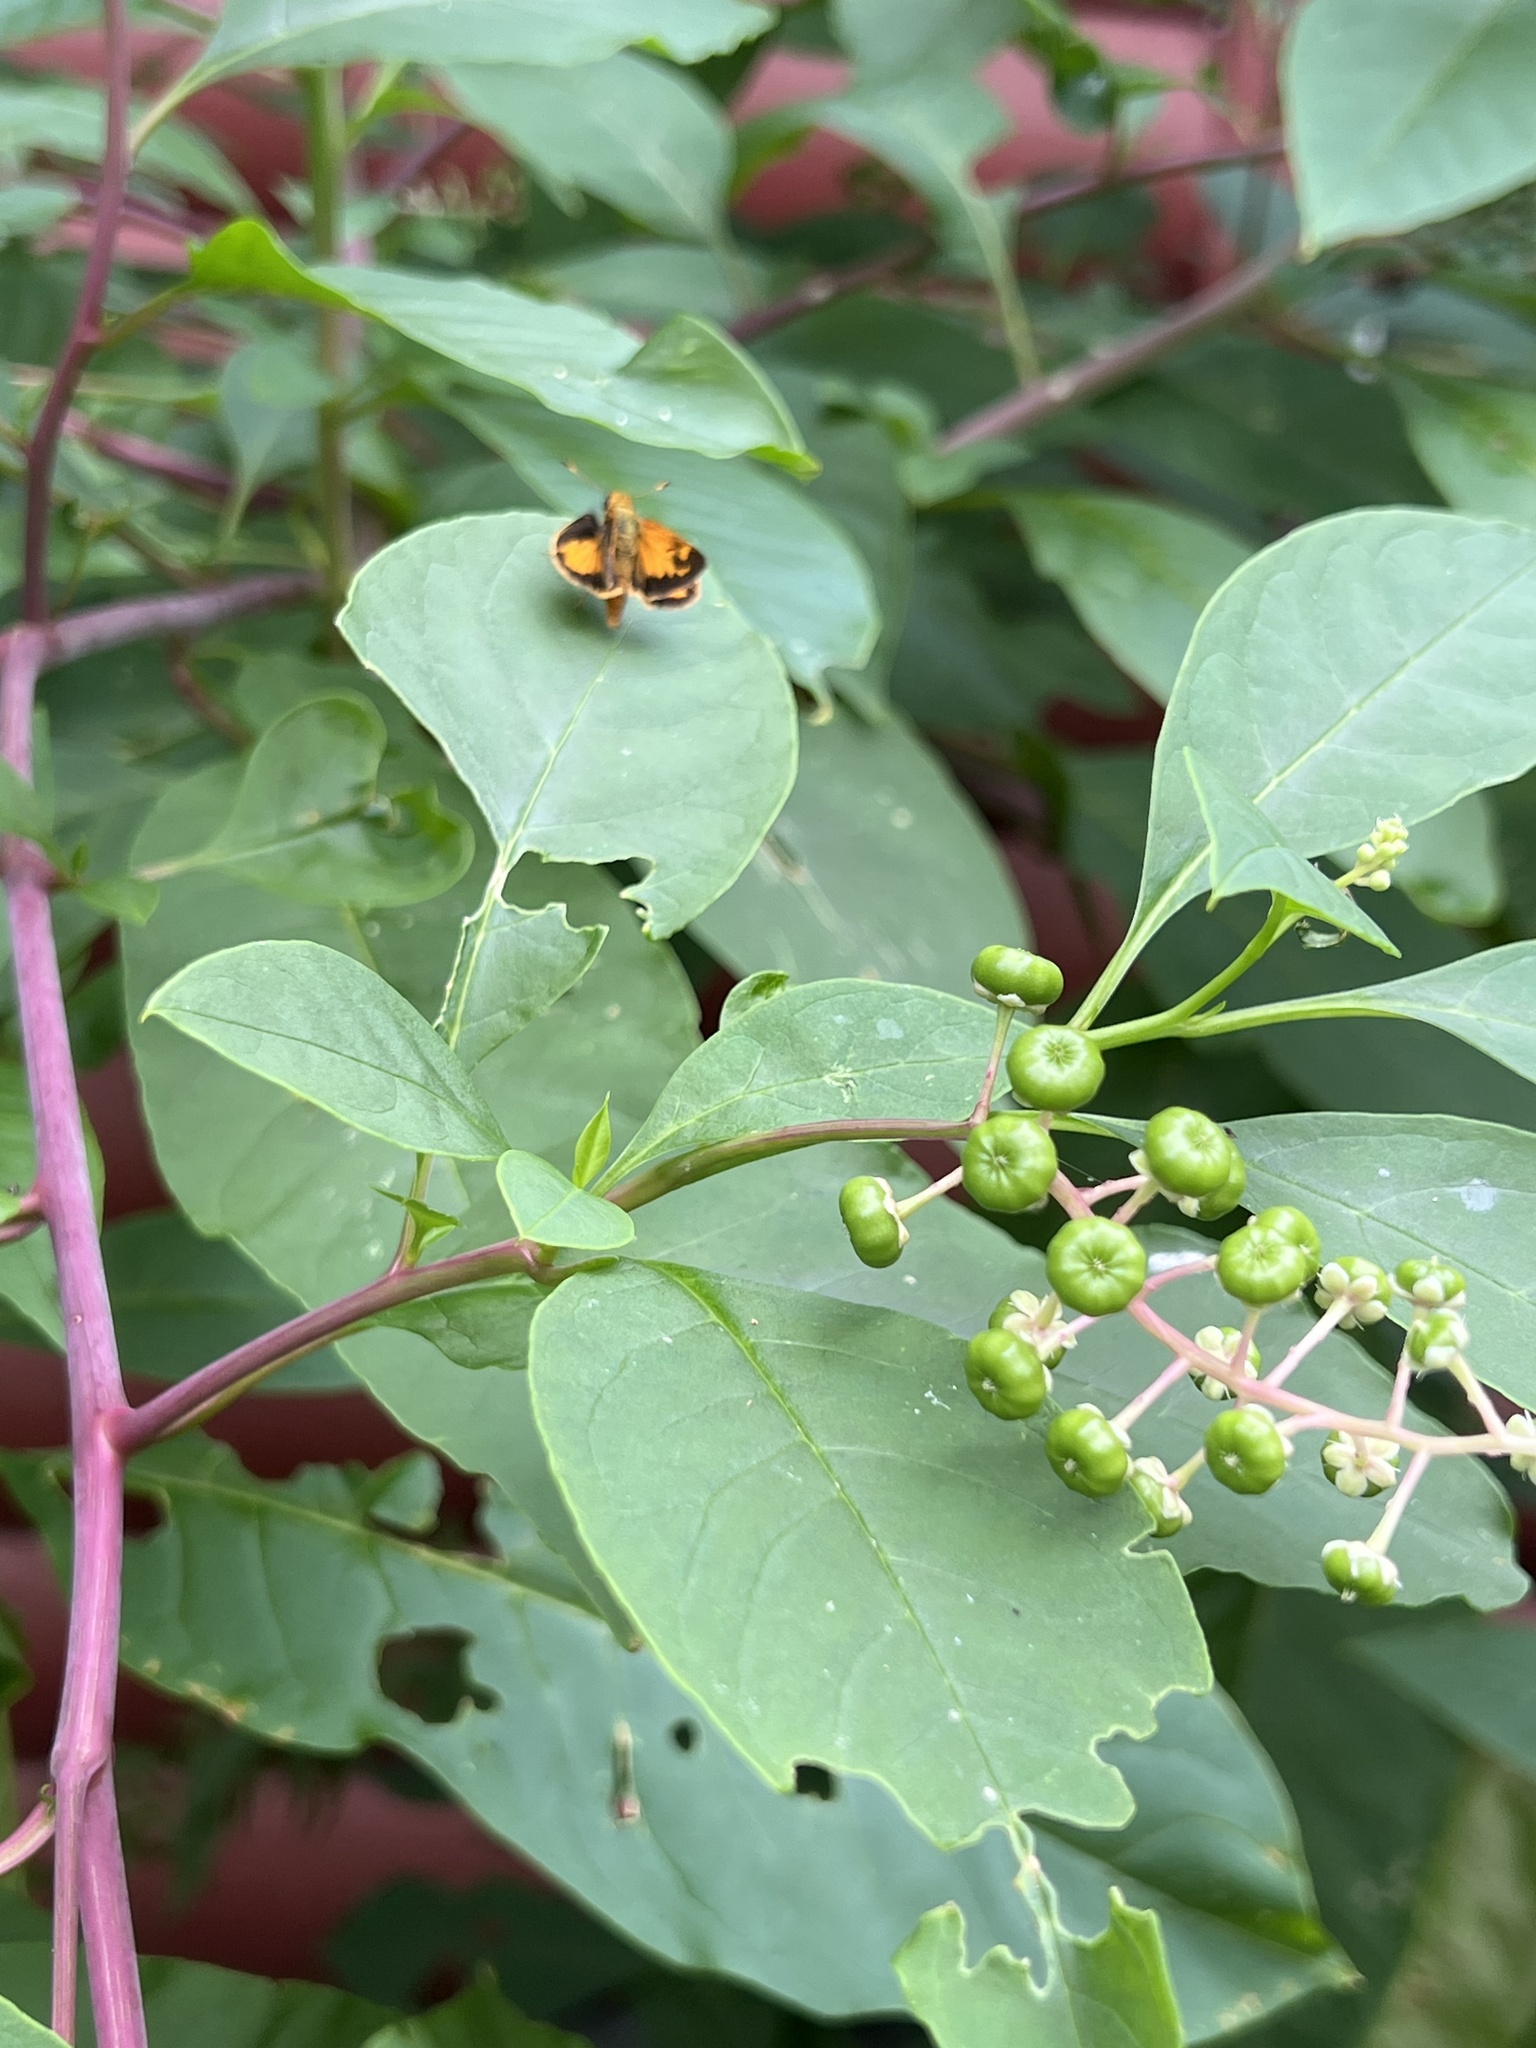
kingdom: Animalia
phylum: Arthropoda
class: Insecta
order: Lepidoptera
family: Hesperiidae
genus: Lon
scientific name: Lon zabulon
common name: Zabulon skipper
